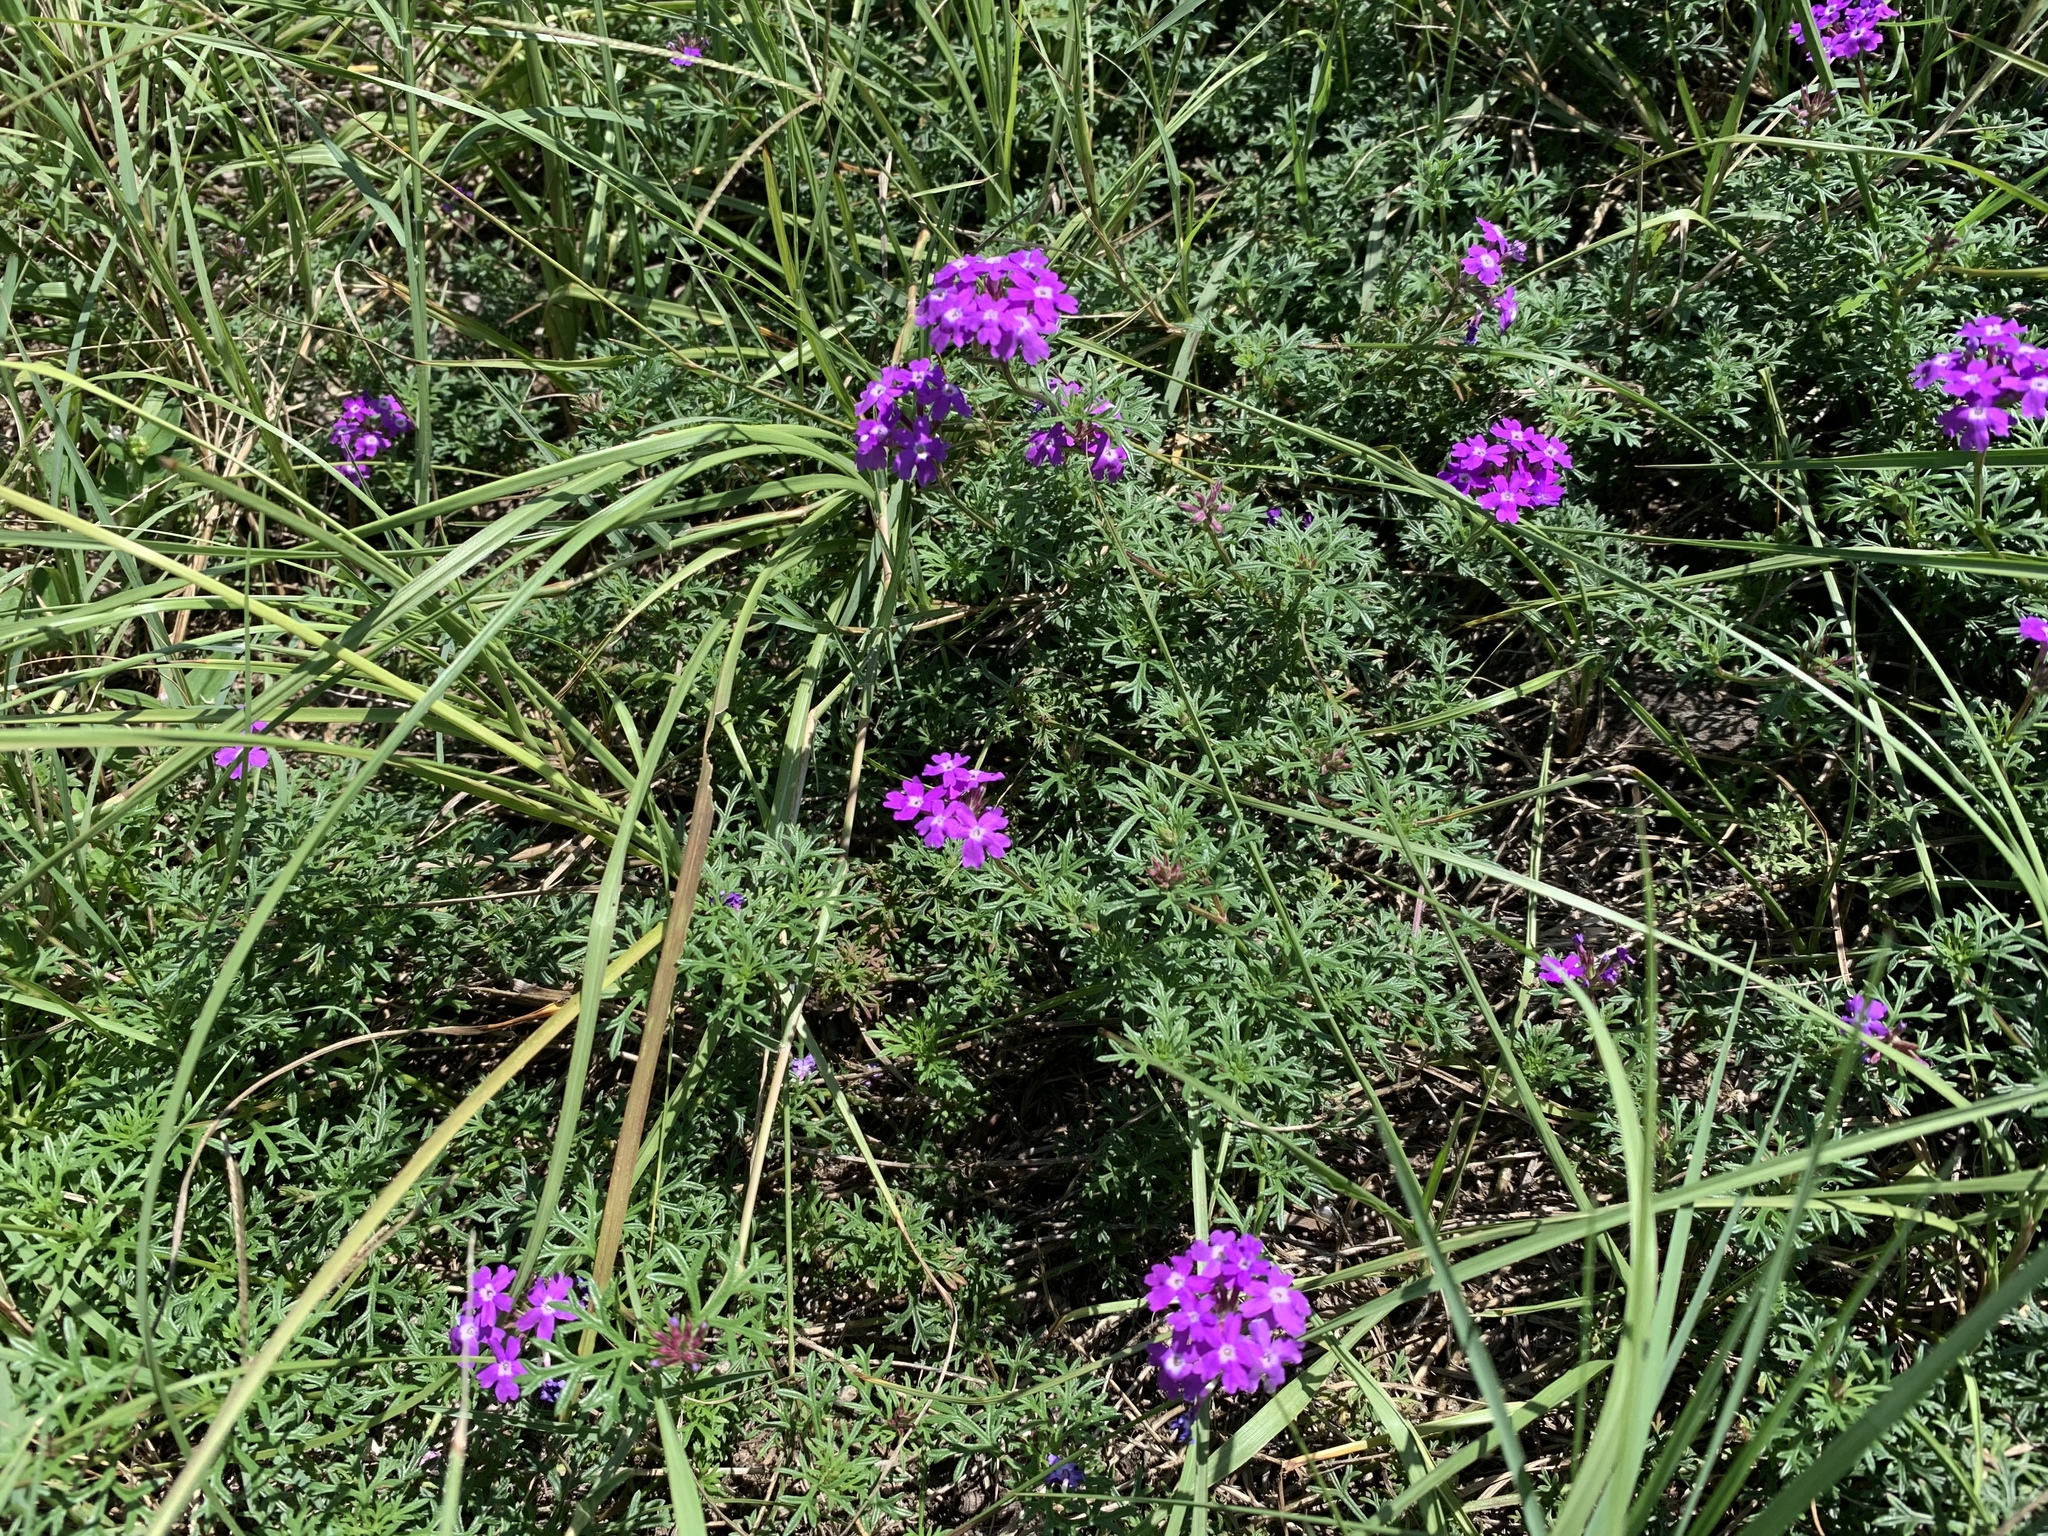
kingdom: Plantae
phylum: Tracheophyta
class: Magnoliopsida
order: Lamiales
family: Verbenaceae
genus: Verbena
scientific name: Verbena
